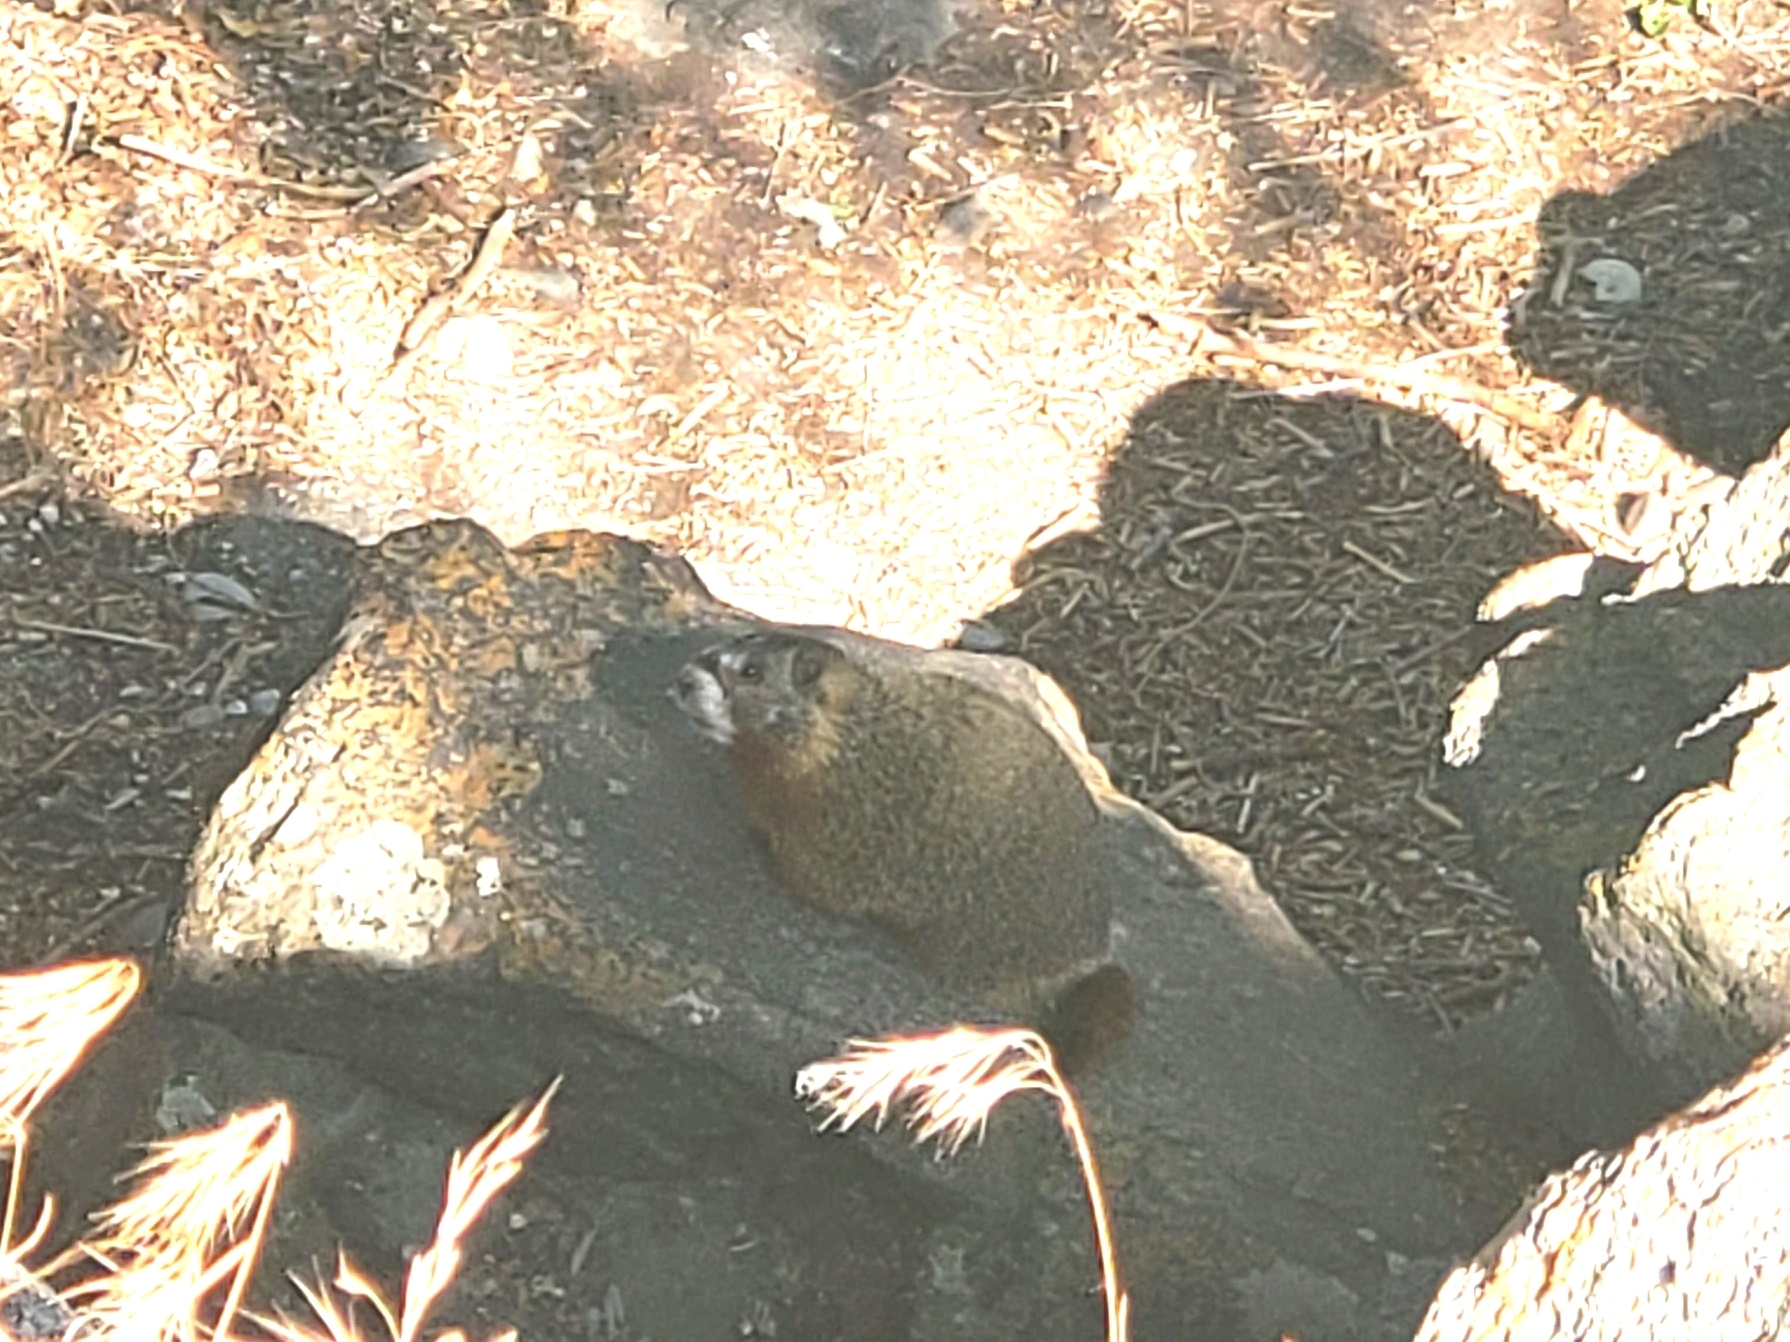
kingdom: Animalia
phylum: Chordata
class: Mammalia
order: Rodentia
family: Sciuridae
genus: Marmota
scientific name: Marmota flaviventris
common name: Yellow-bellied marmot
